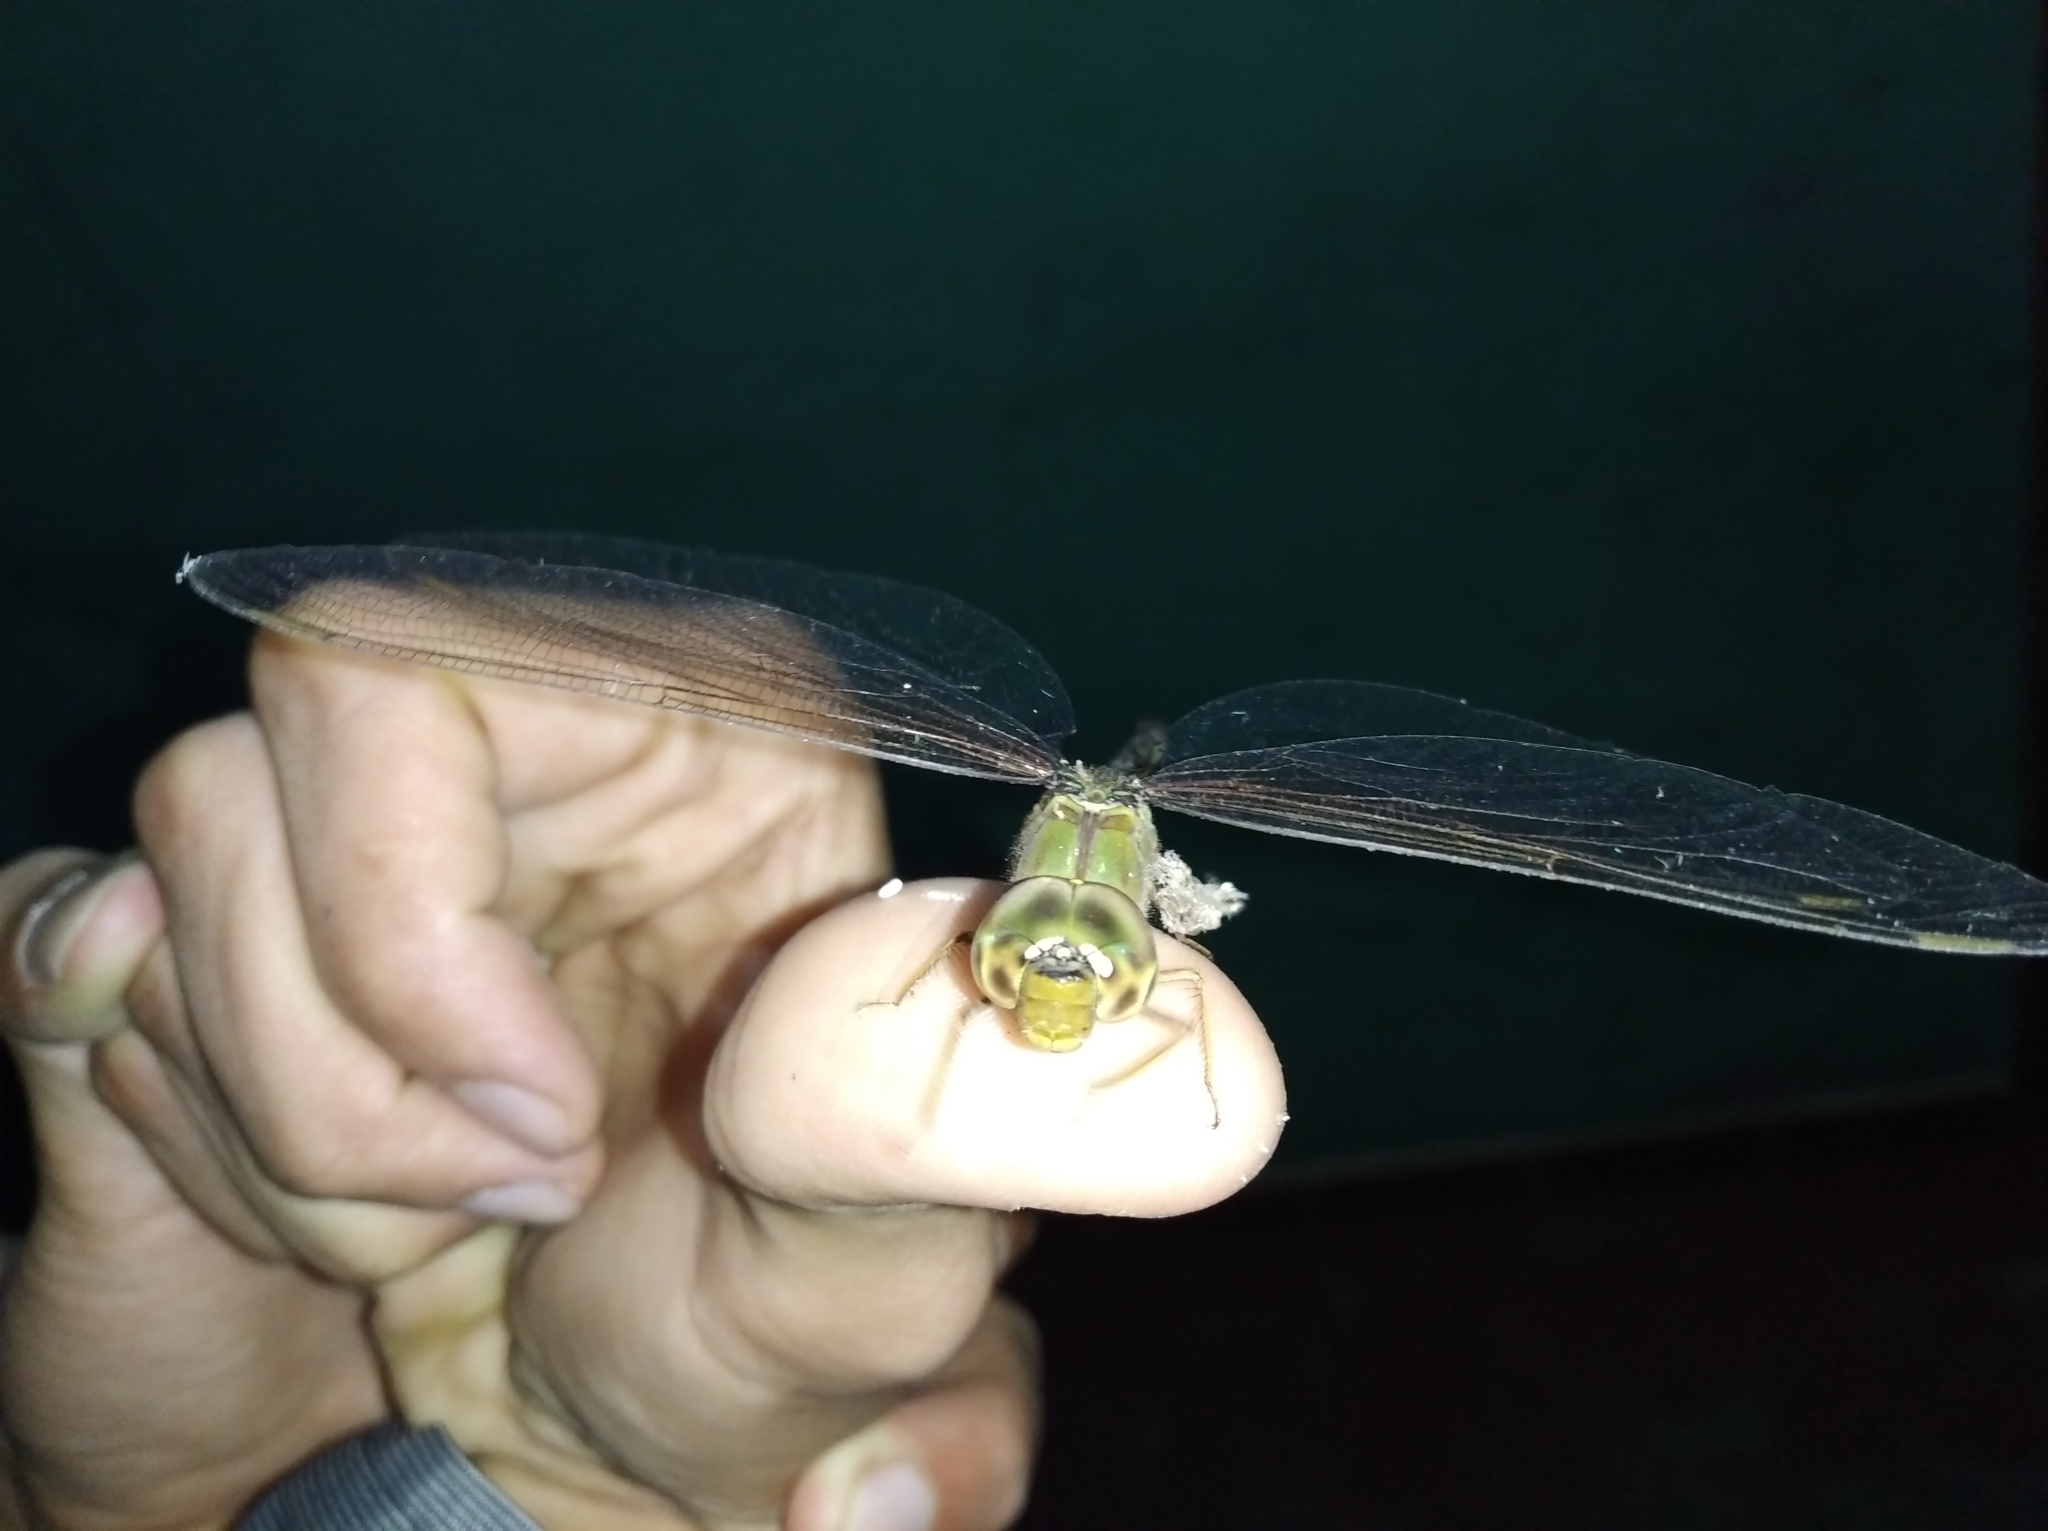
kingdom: Animalia
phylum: Arthropoda
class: Insecta
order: Odonata
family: Aeshnidae
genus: Gynacantha
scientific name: Gynacantha nervosa
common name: Twilight darner
